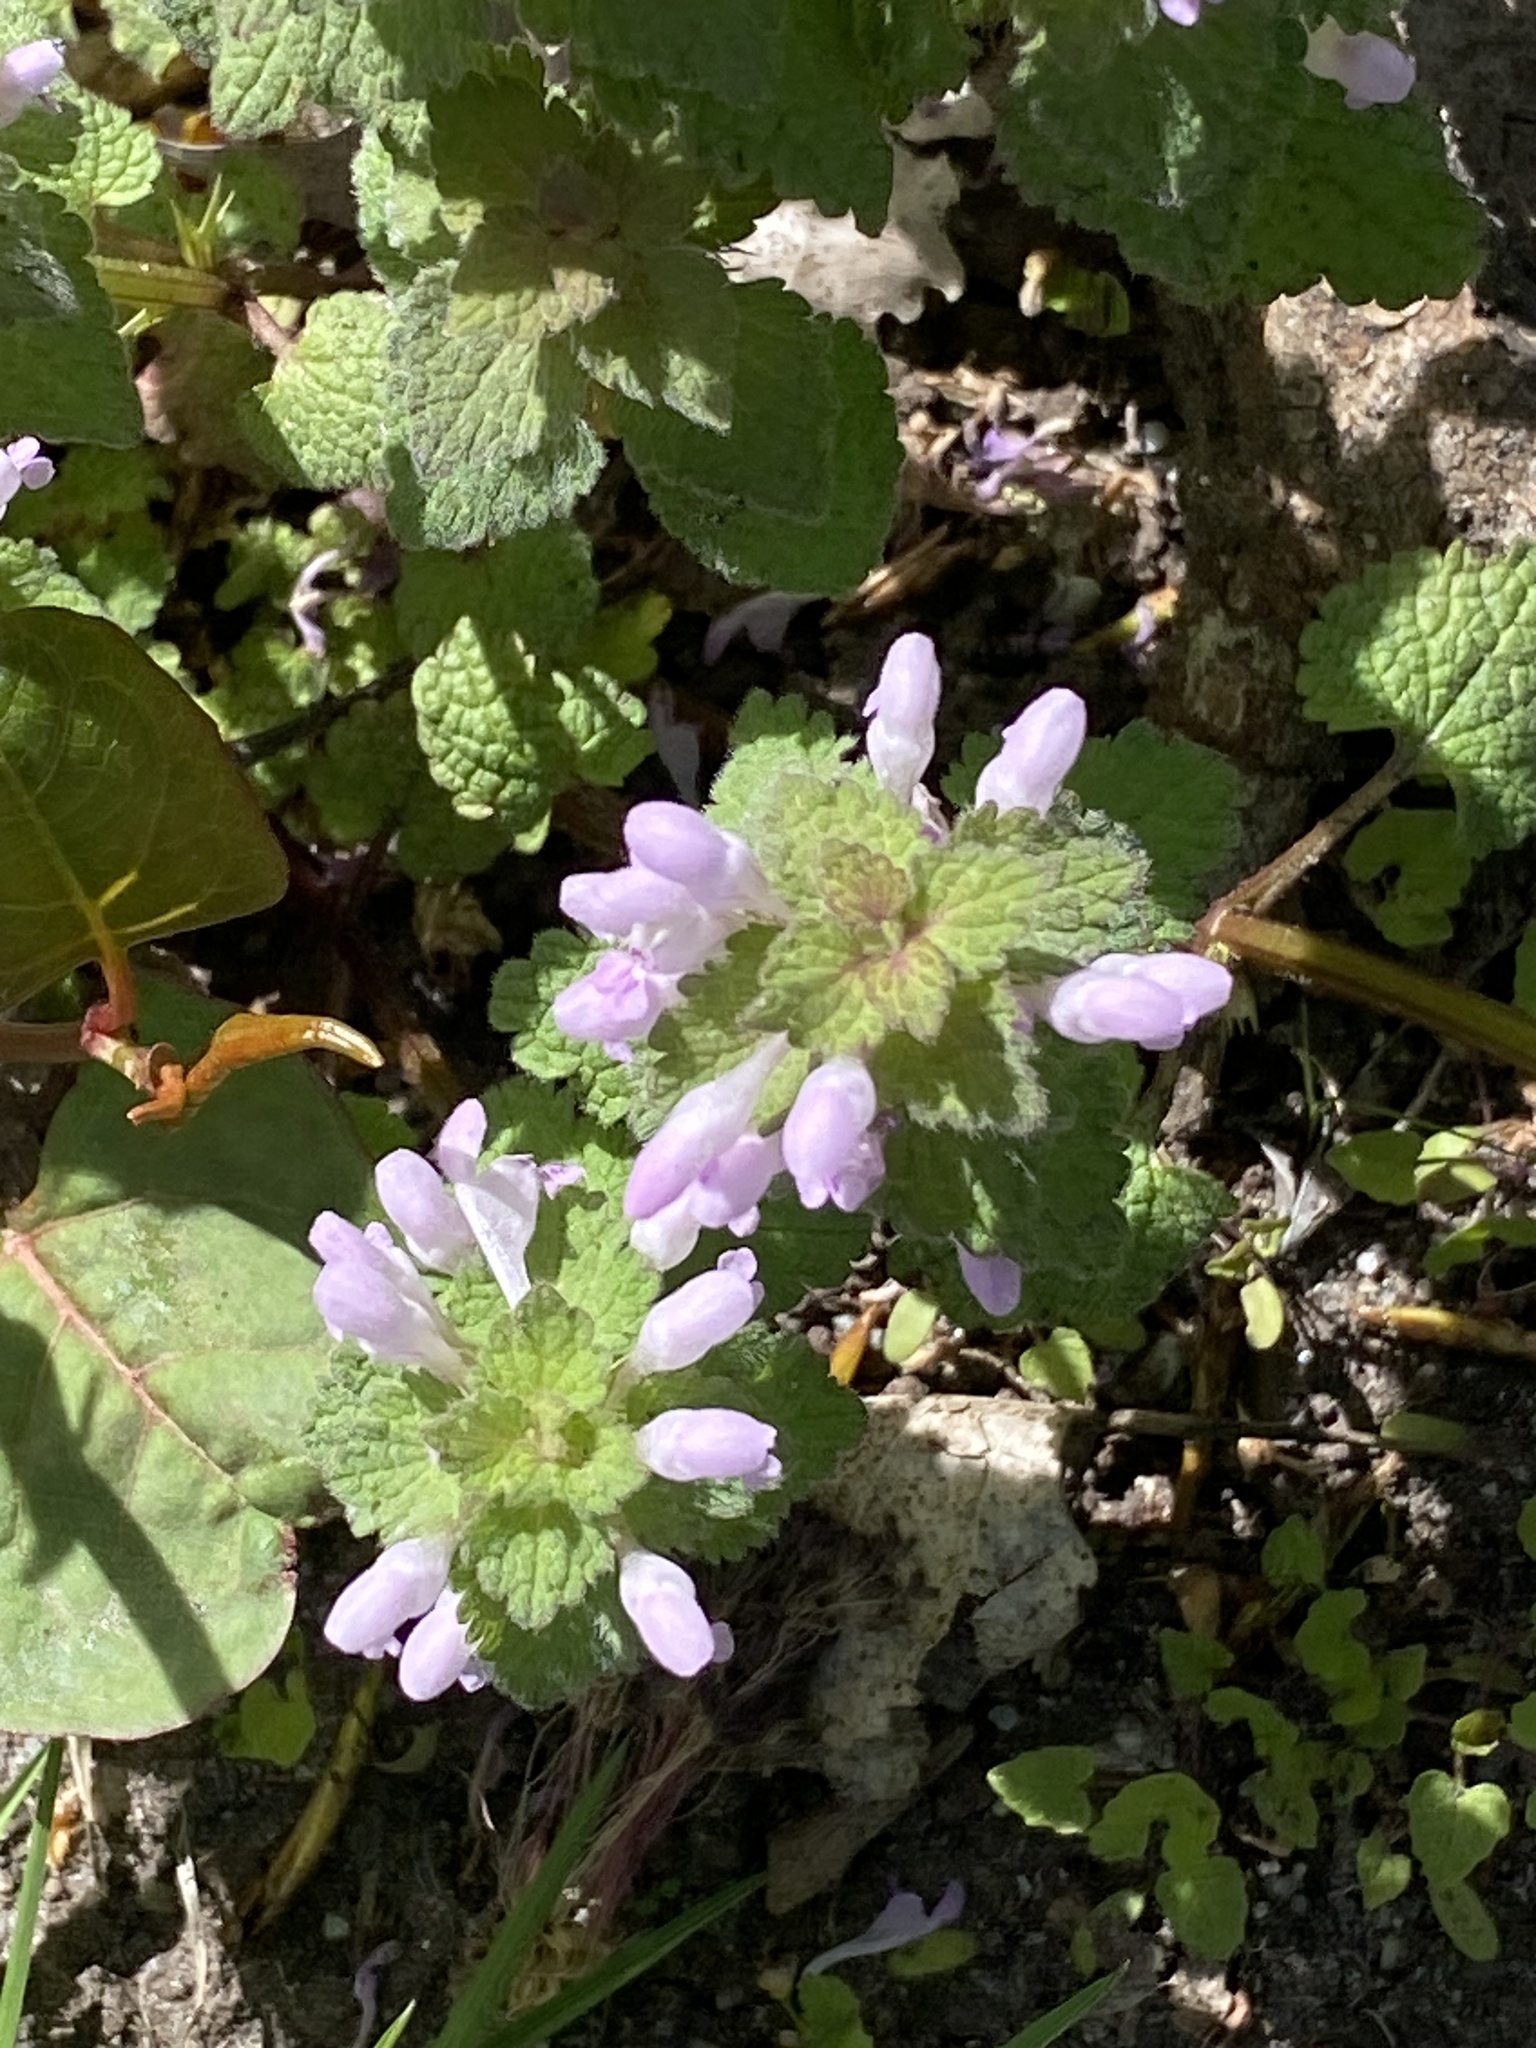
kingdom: Plantae
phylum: Tracheophyta
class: Magnoliopsida
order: Lamiales
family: Lamiaceae
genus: Lamium
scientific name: Lamium purpureum
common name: Red dead-nettle
